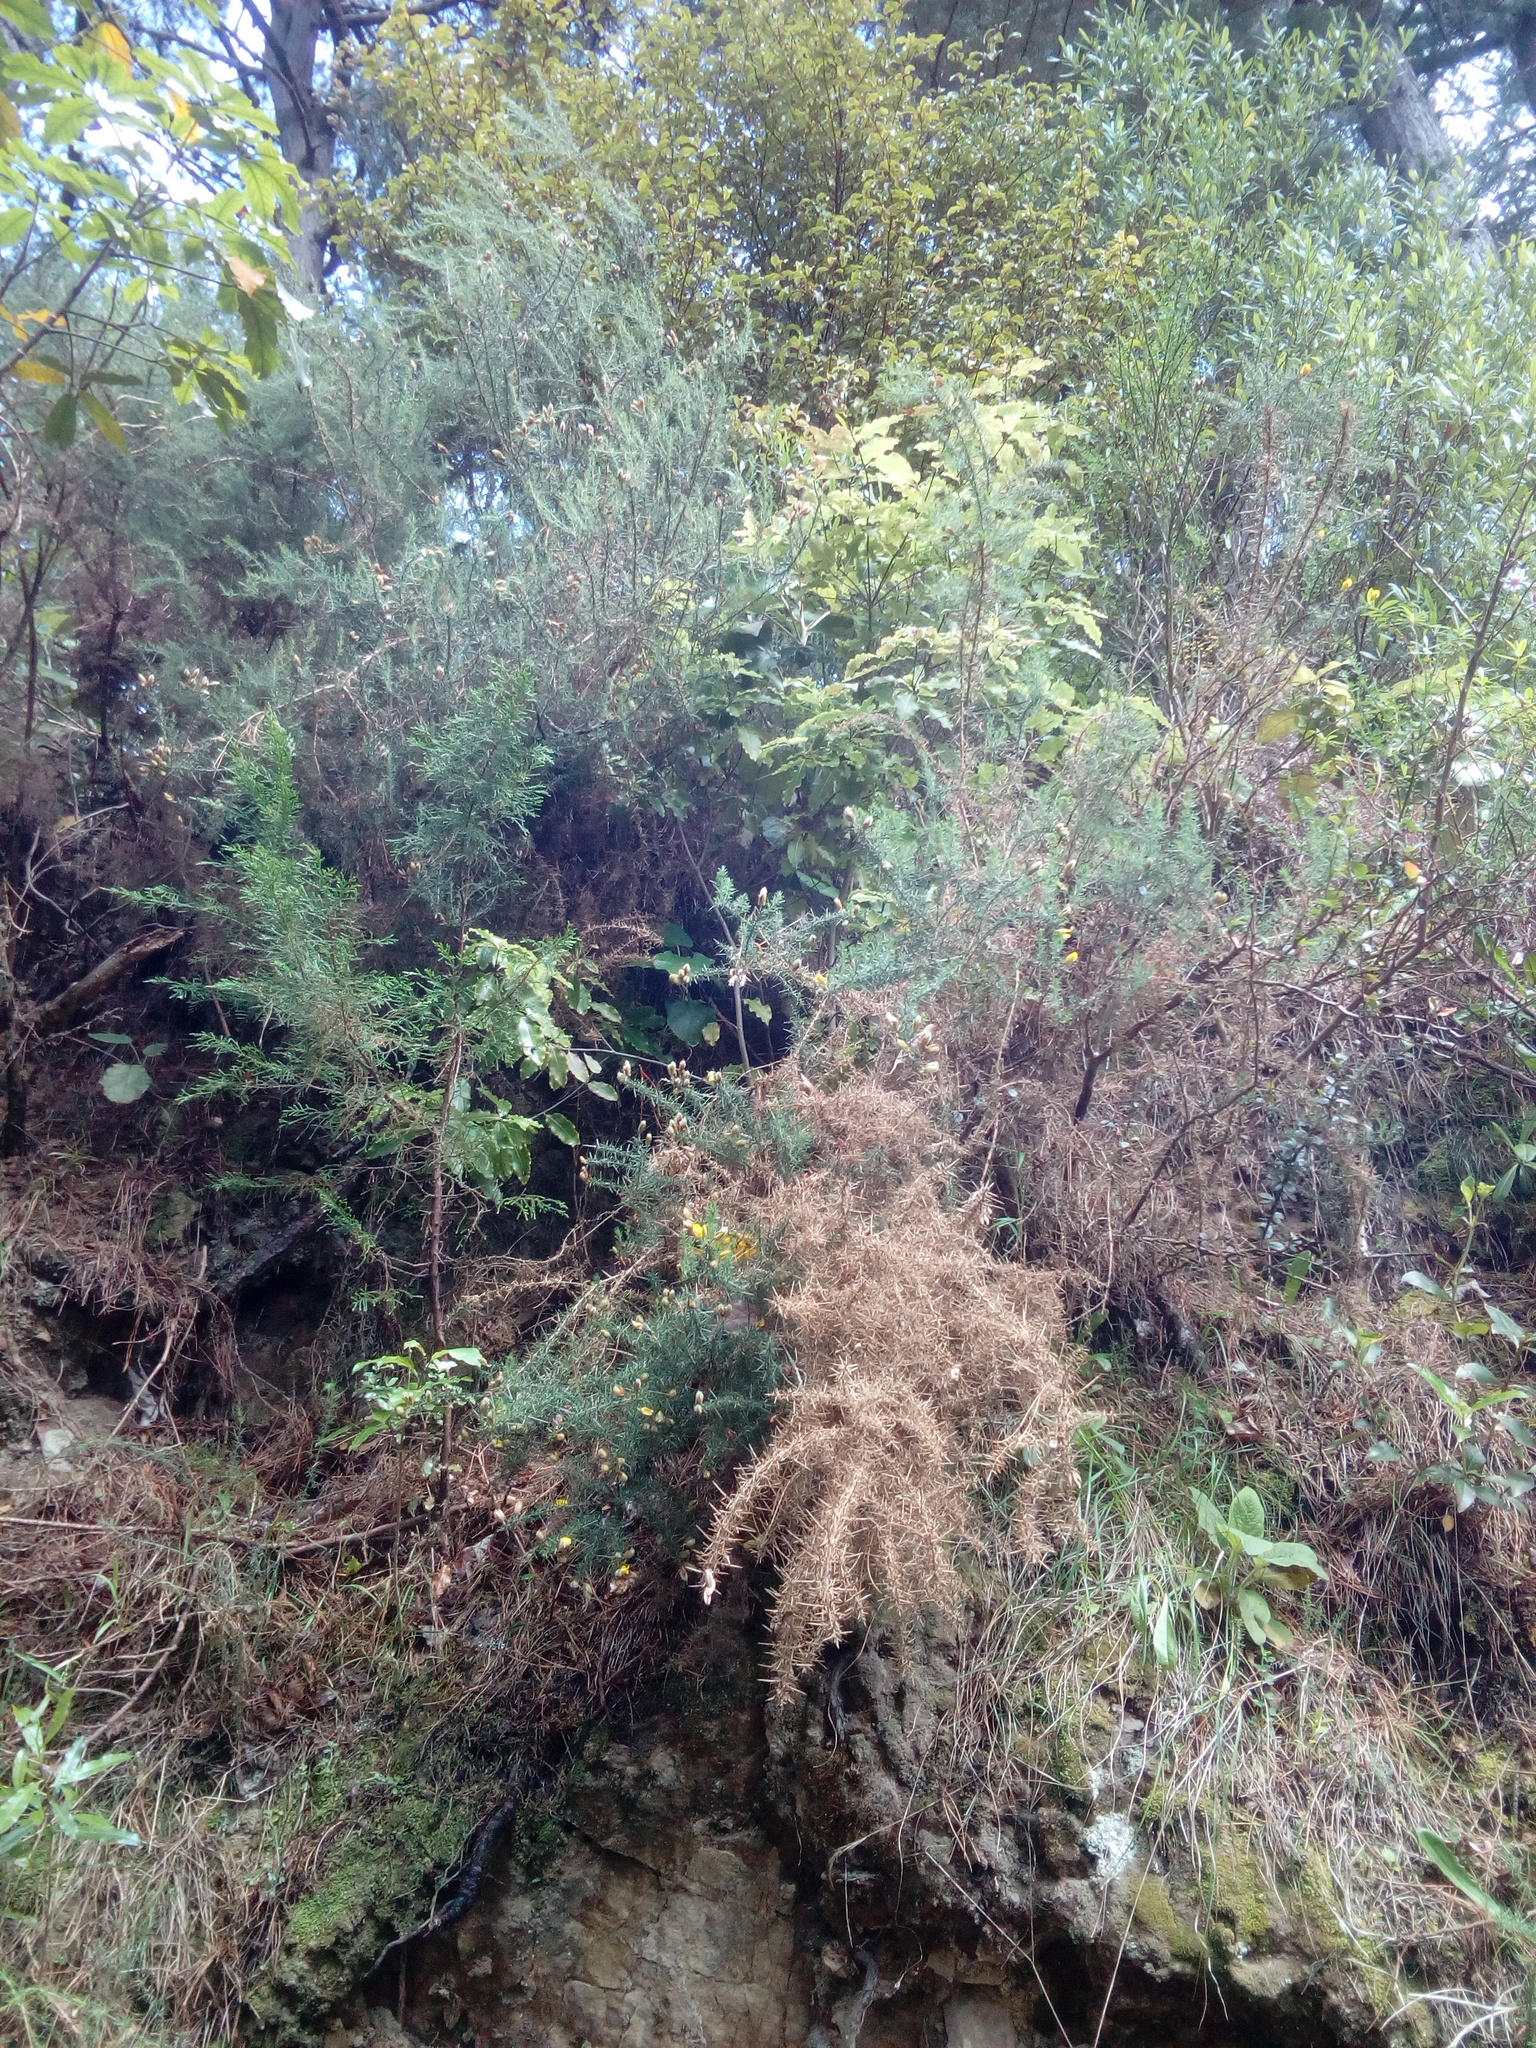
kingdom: Plantae
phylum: Tracheophyta
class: Magnoliopsida
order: Fabales
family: Fabaceae
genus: Ulex
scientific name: Ulex europaeus
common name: Common gorse
